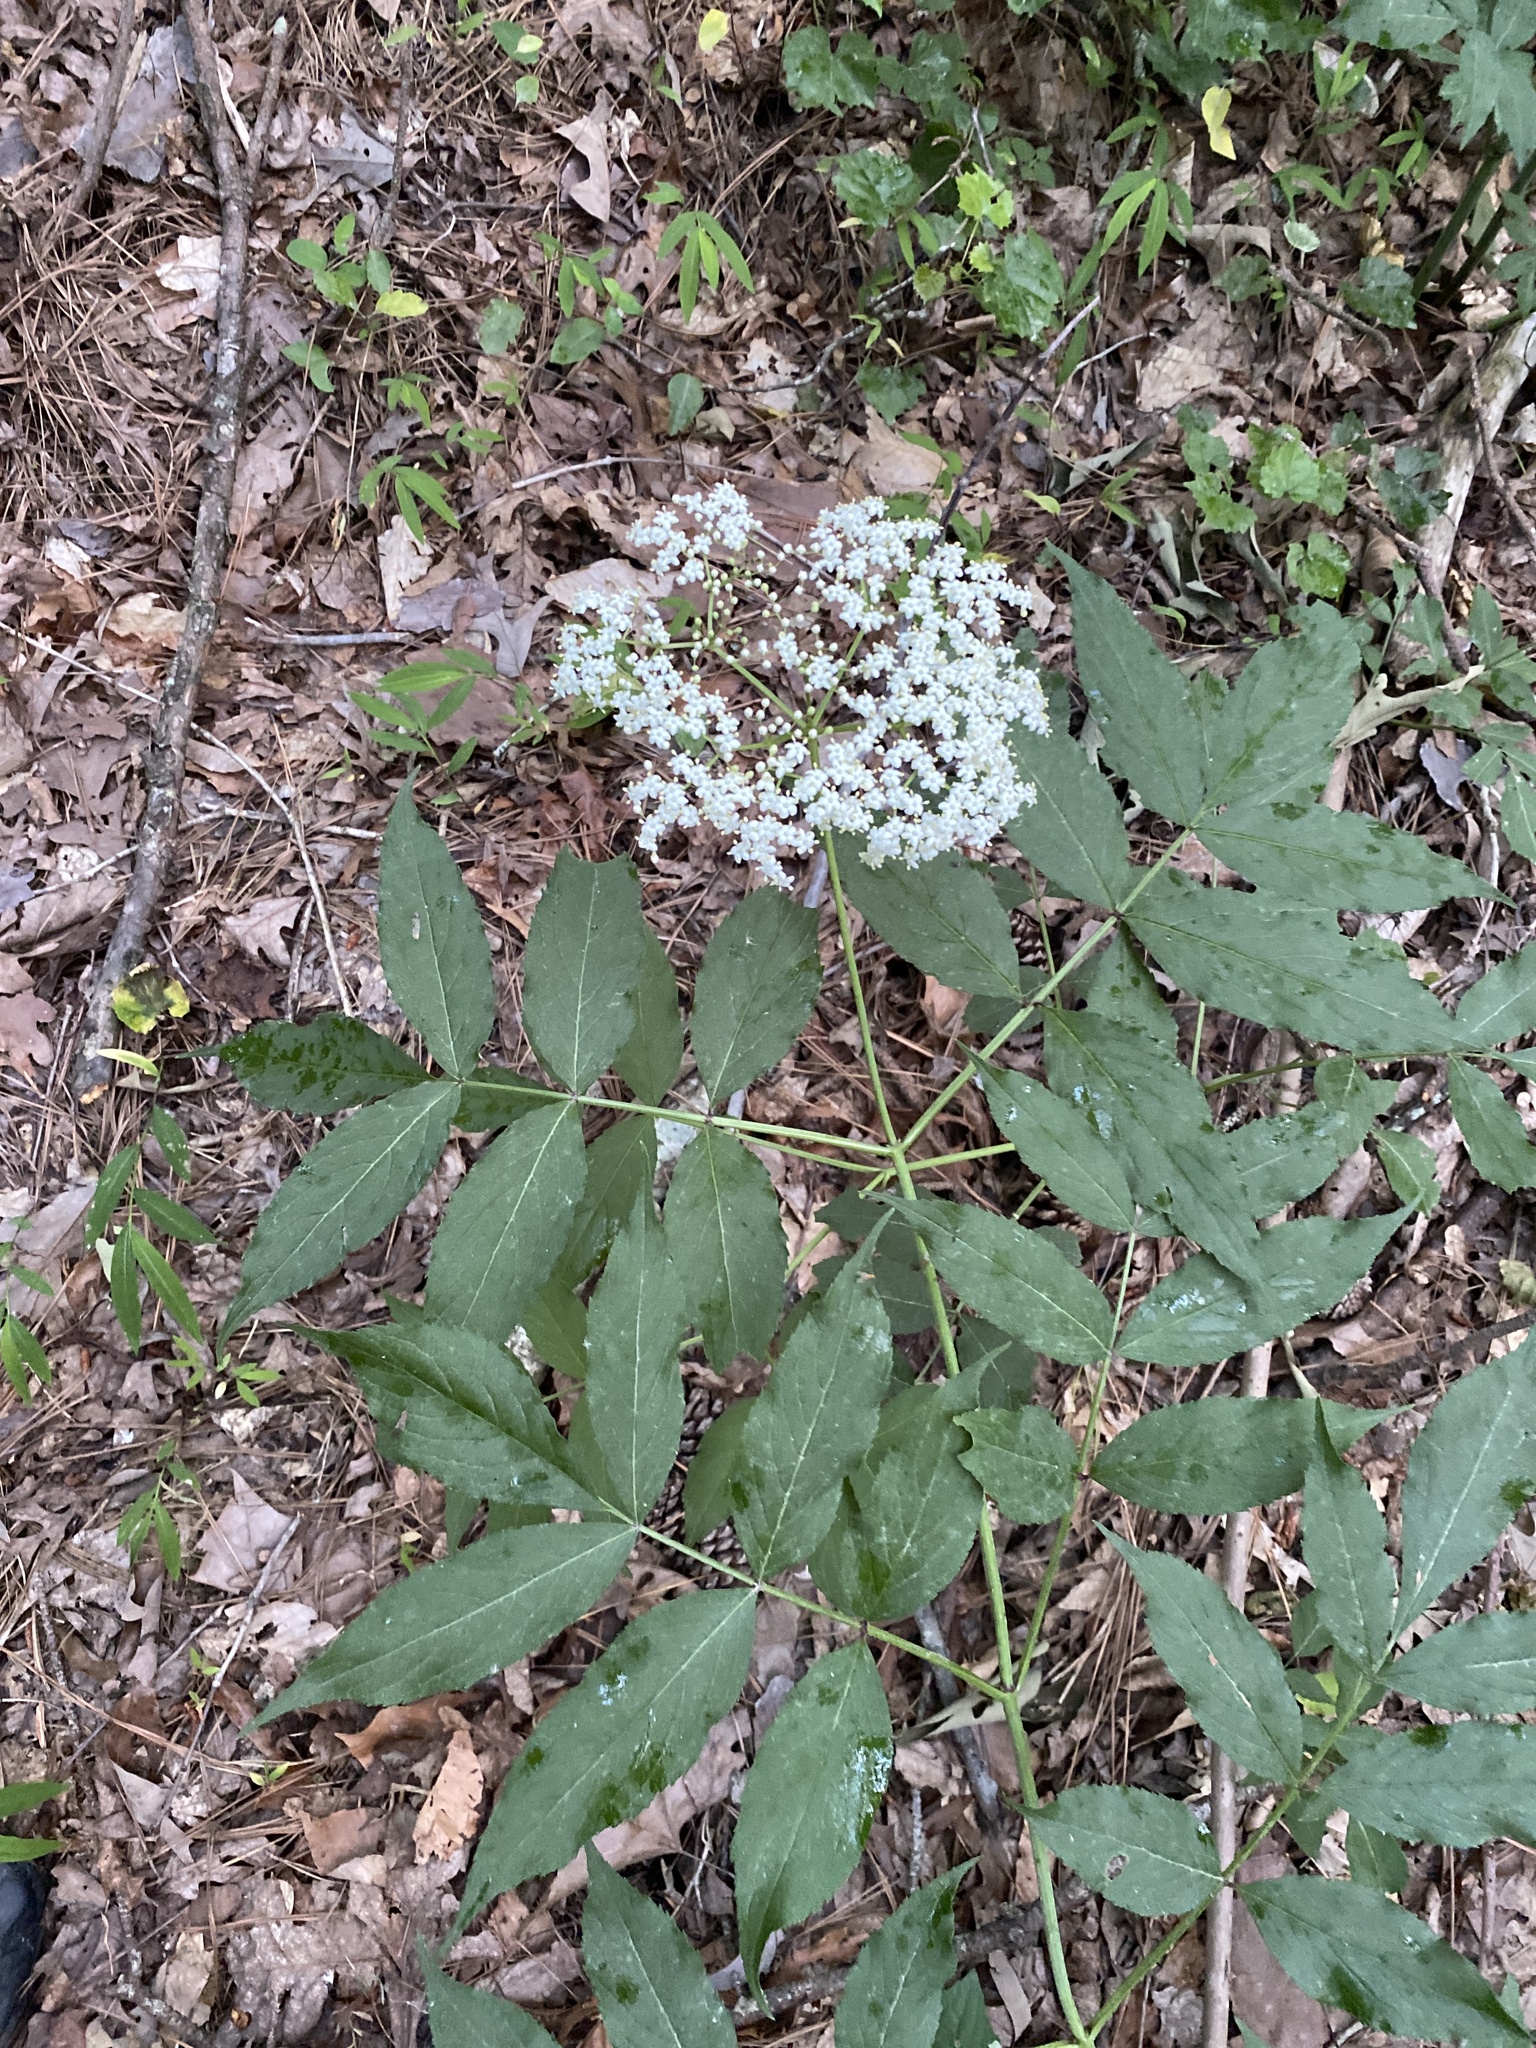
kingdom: Plantae
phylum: Tracheophyta
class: Magnoliopsida
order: Dipsacales
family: Viburnaceae
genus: Sambucus
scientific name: Sambucus canadensis
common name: American elder
